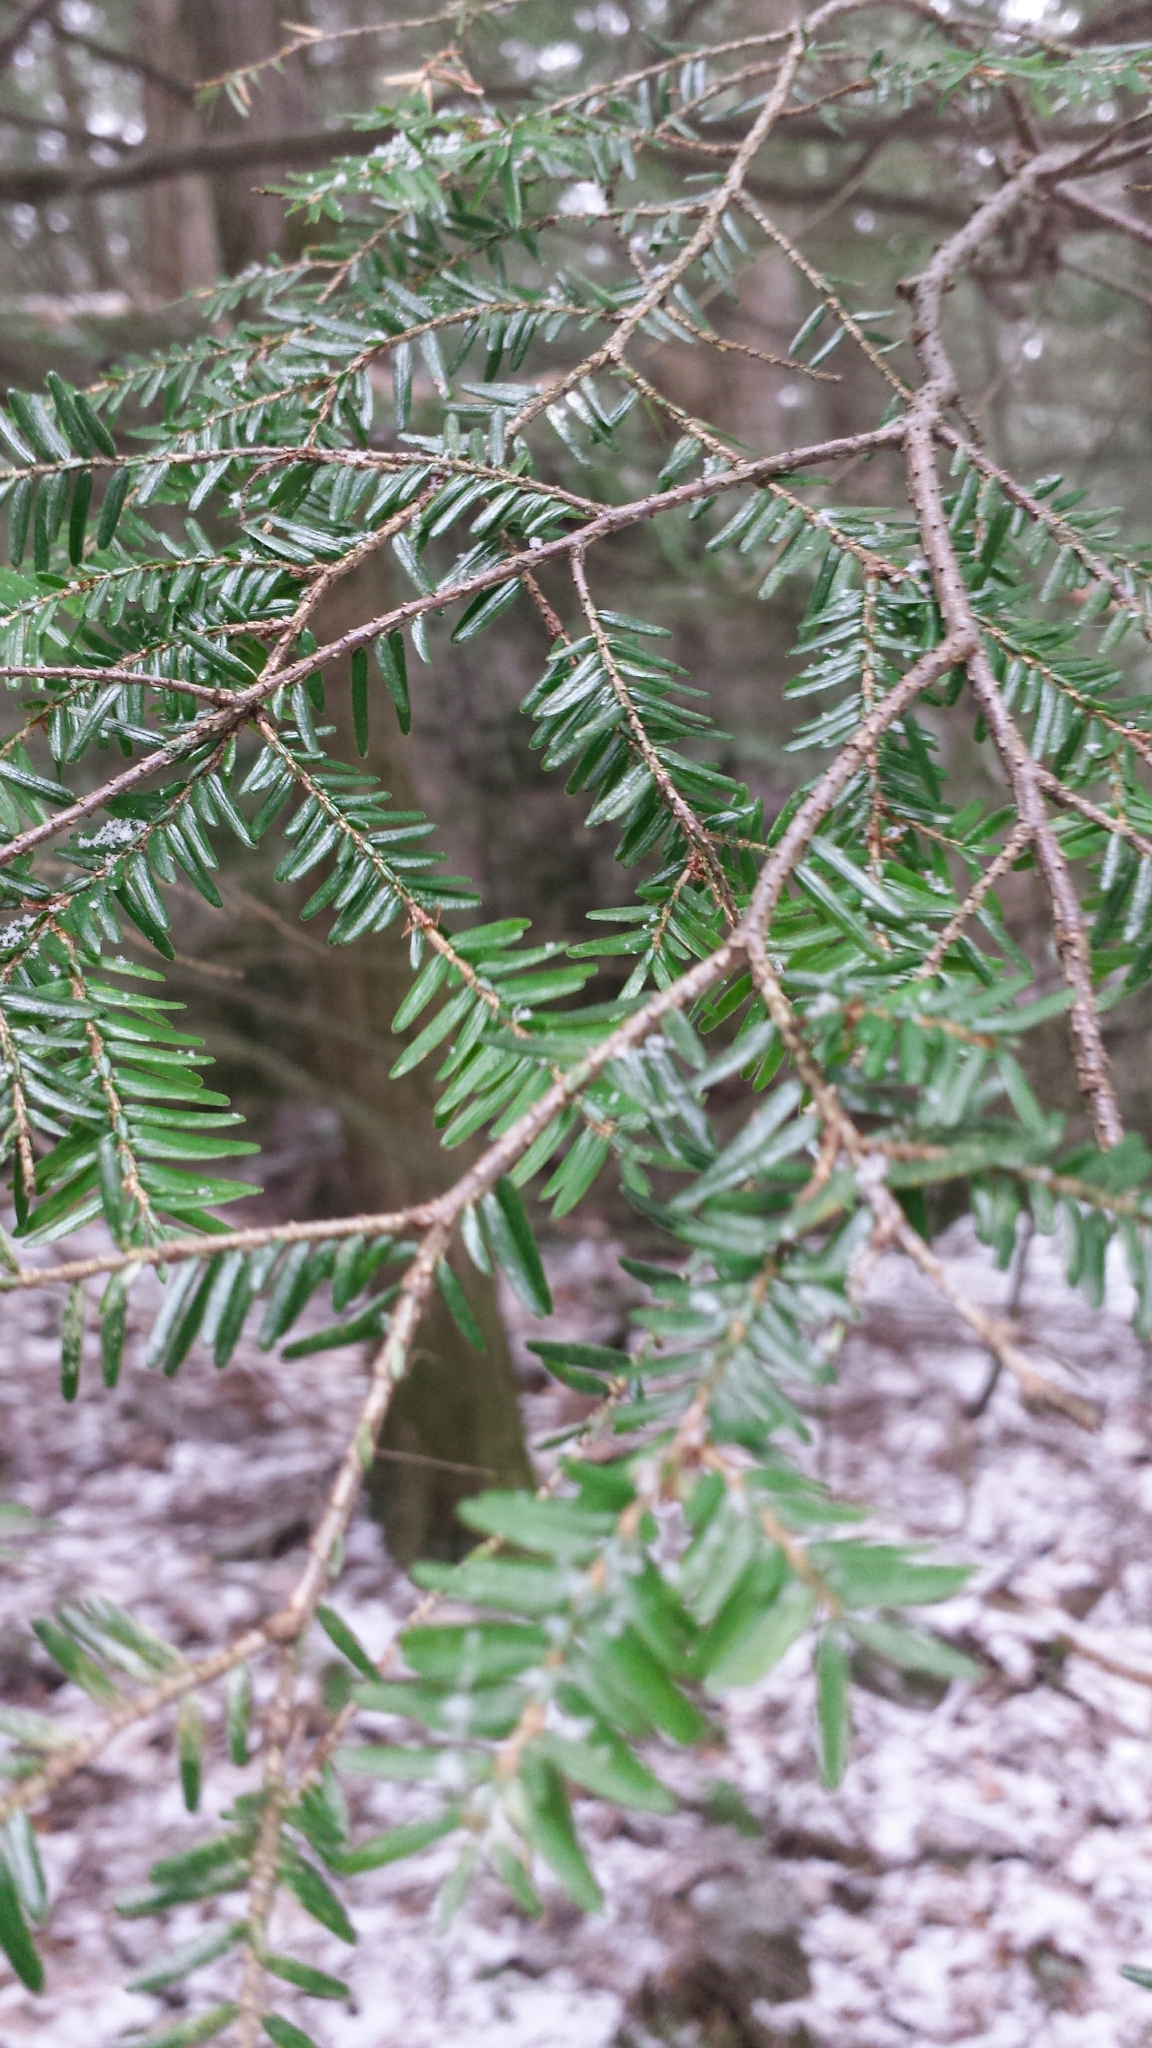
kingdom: Plantae
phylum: Tracheophyta
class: Pinopsida
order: Pinales
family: Pinaceae
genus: Tsuga
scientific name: Tsuga canadensis
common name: Eastern hemlock
